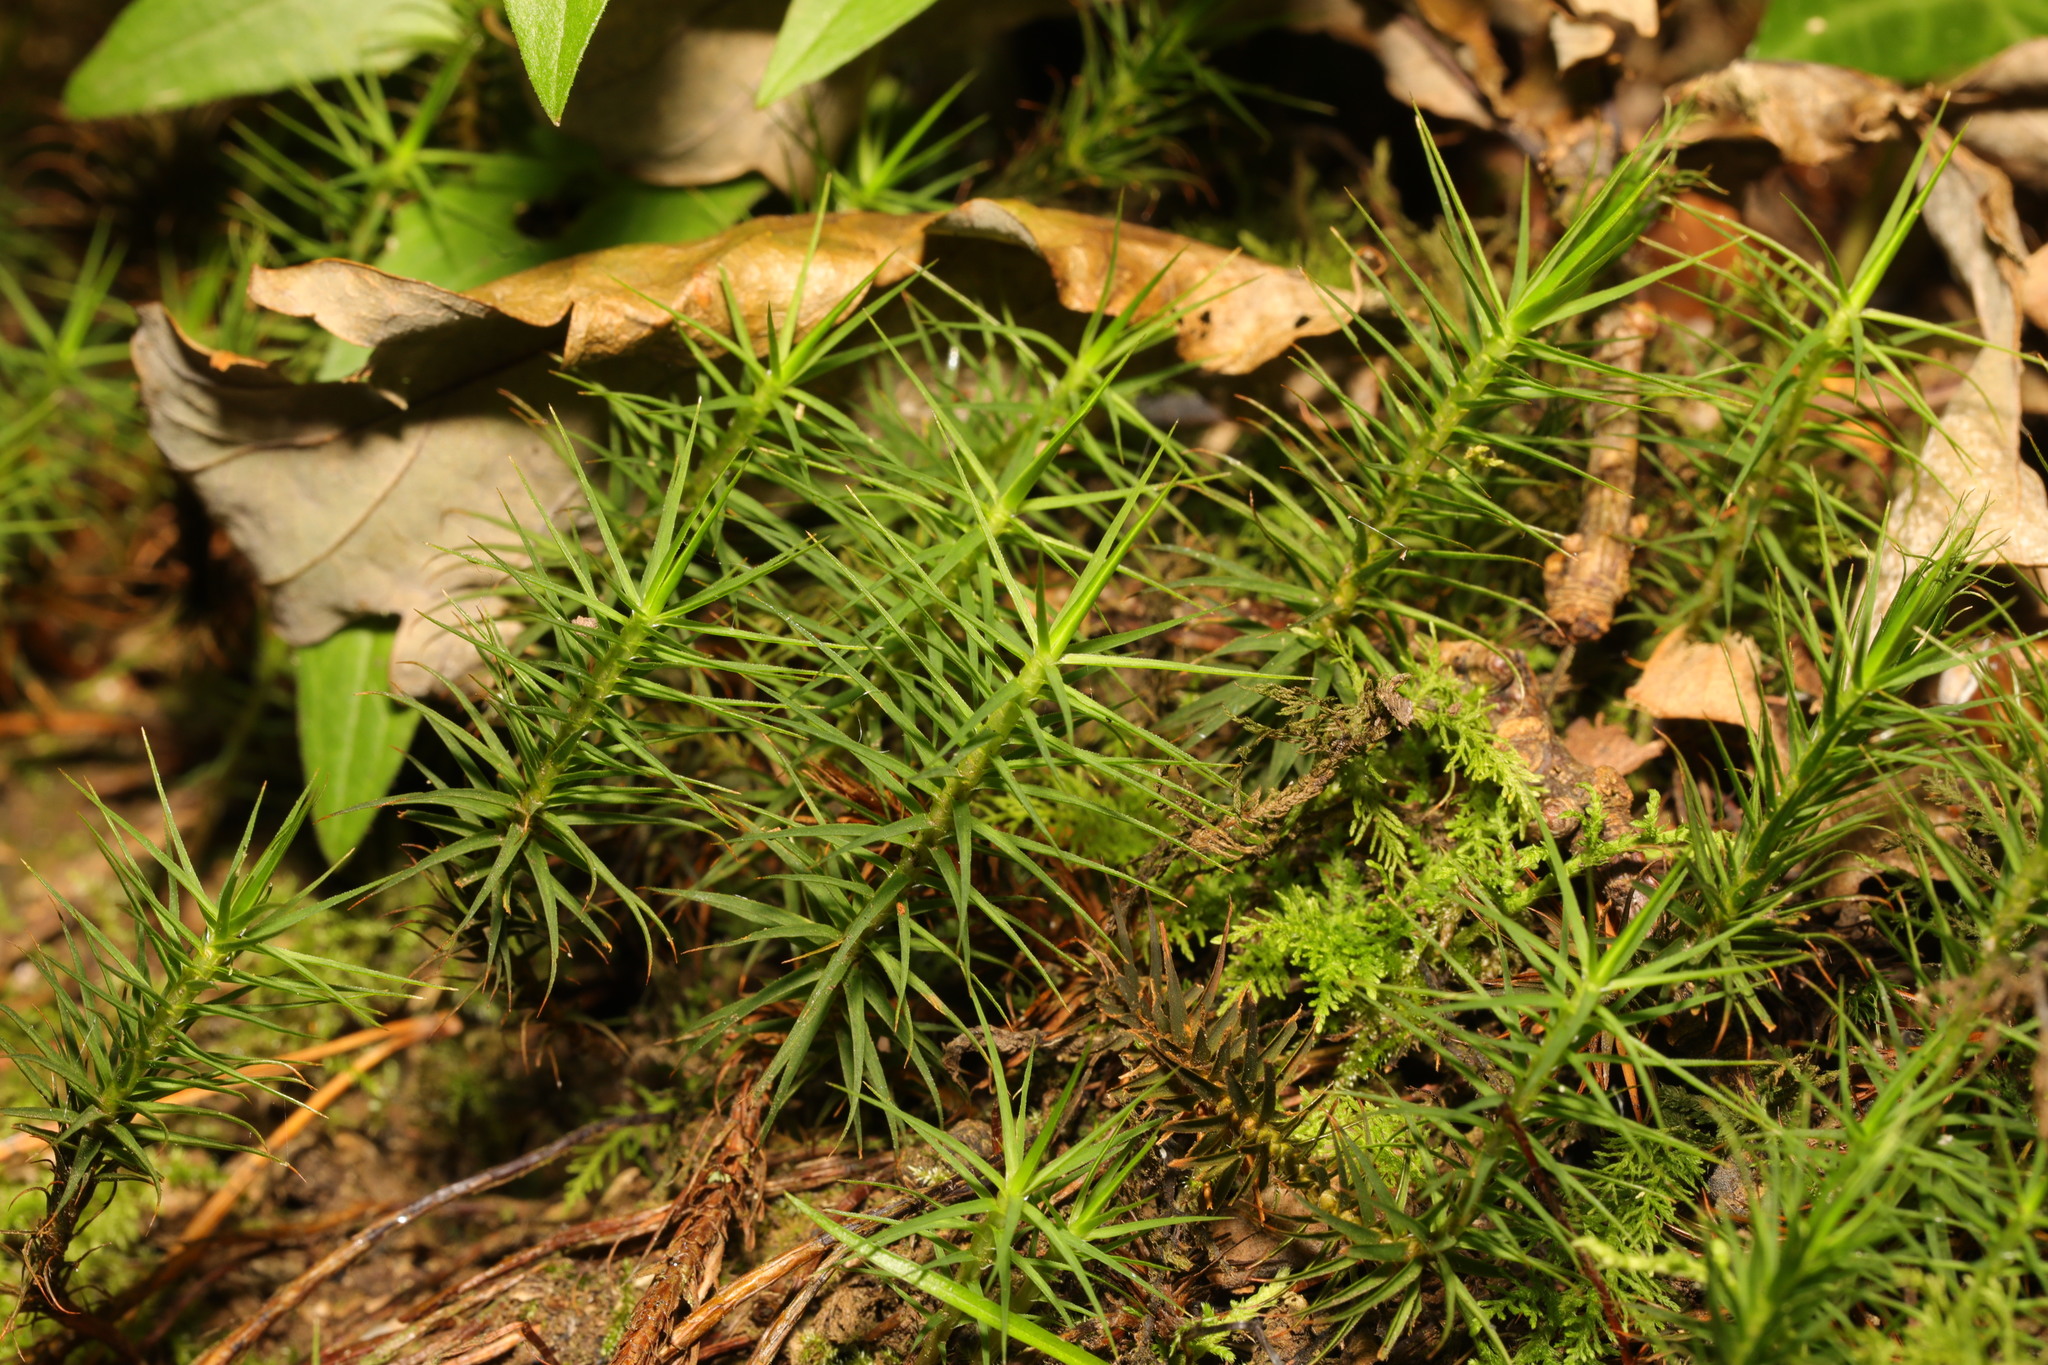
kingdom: Plantae
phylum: Bryophyta
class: Polytrichopsida
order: Polytrichales
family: Polytrichaceae
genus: Polytrichum
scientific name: Polytrichum formosum
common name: Bank haircap moss
